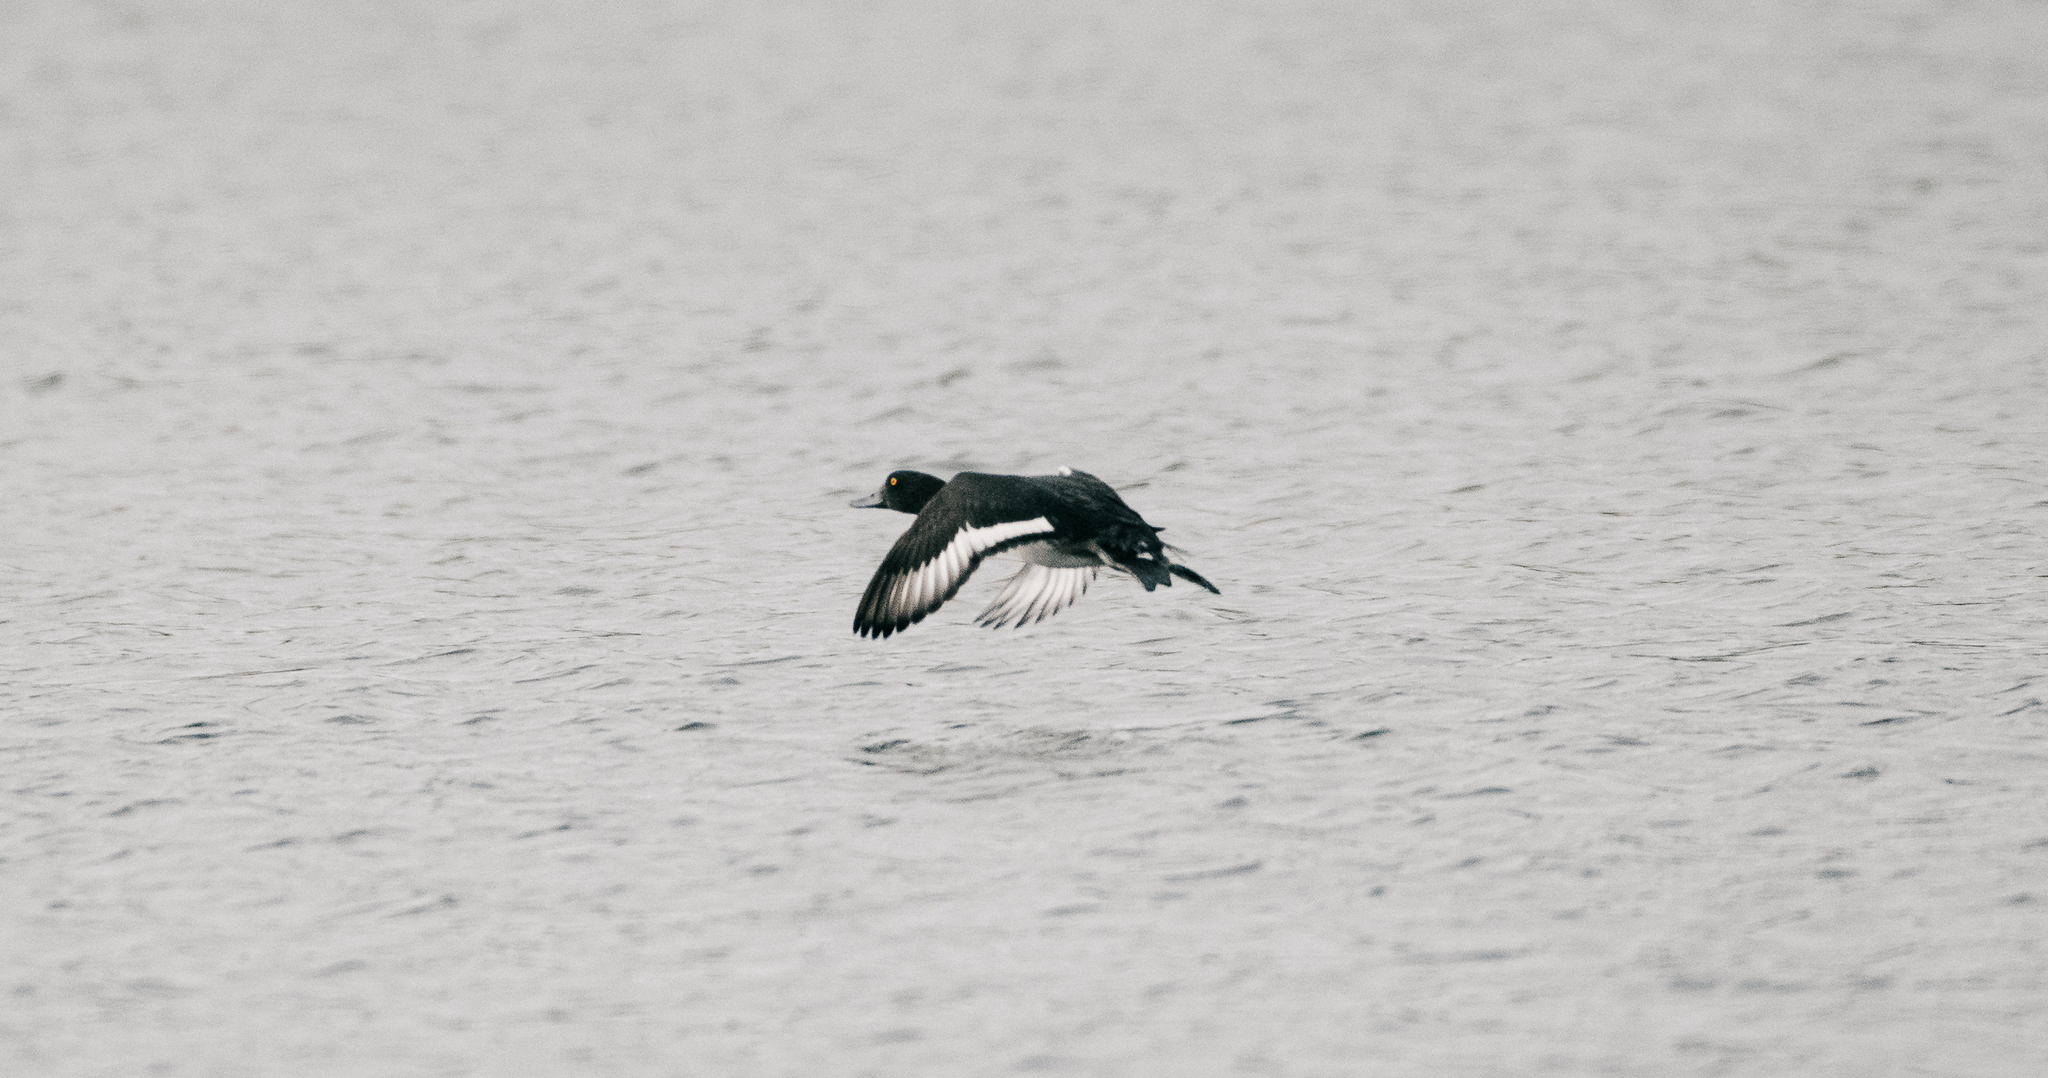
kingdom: Animalia
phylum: Chordata
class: Aves
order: Anseriformes
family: Anatidae
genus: Aythya
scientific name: Aythya fuligula
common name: Tufted duck
